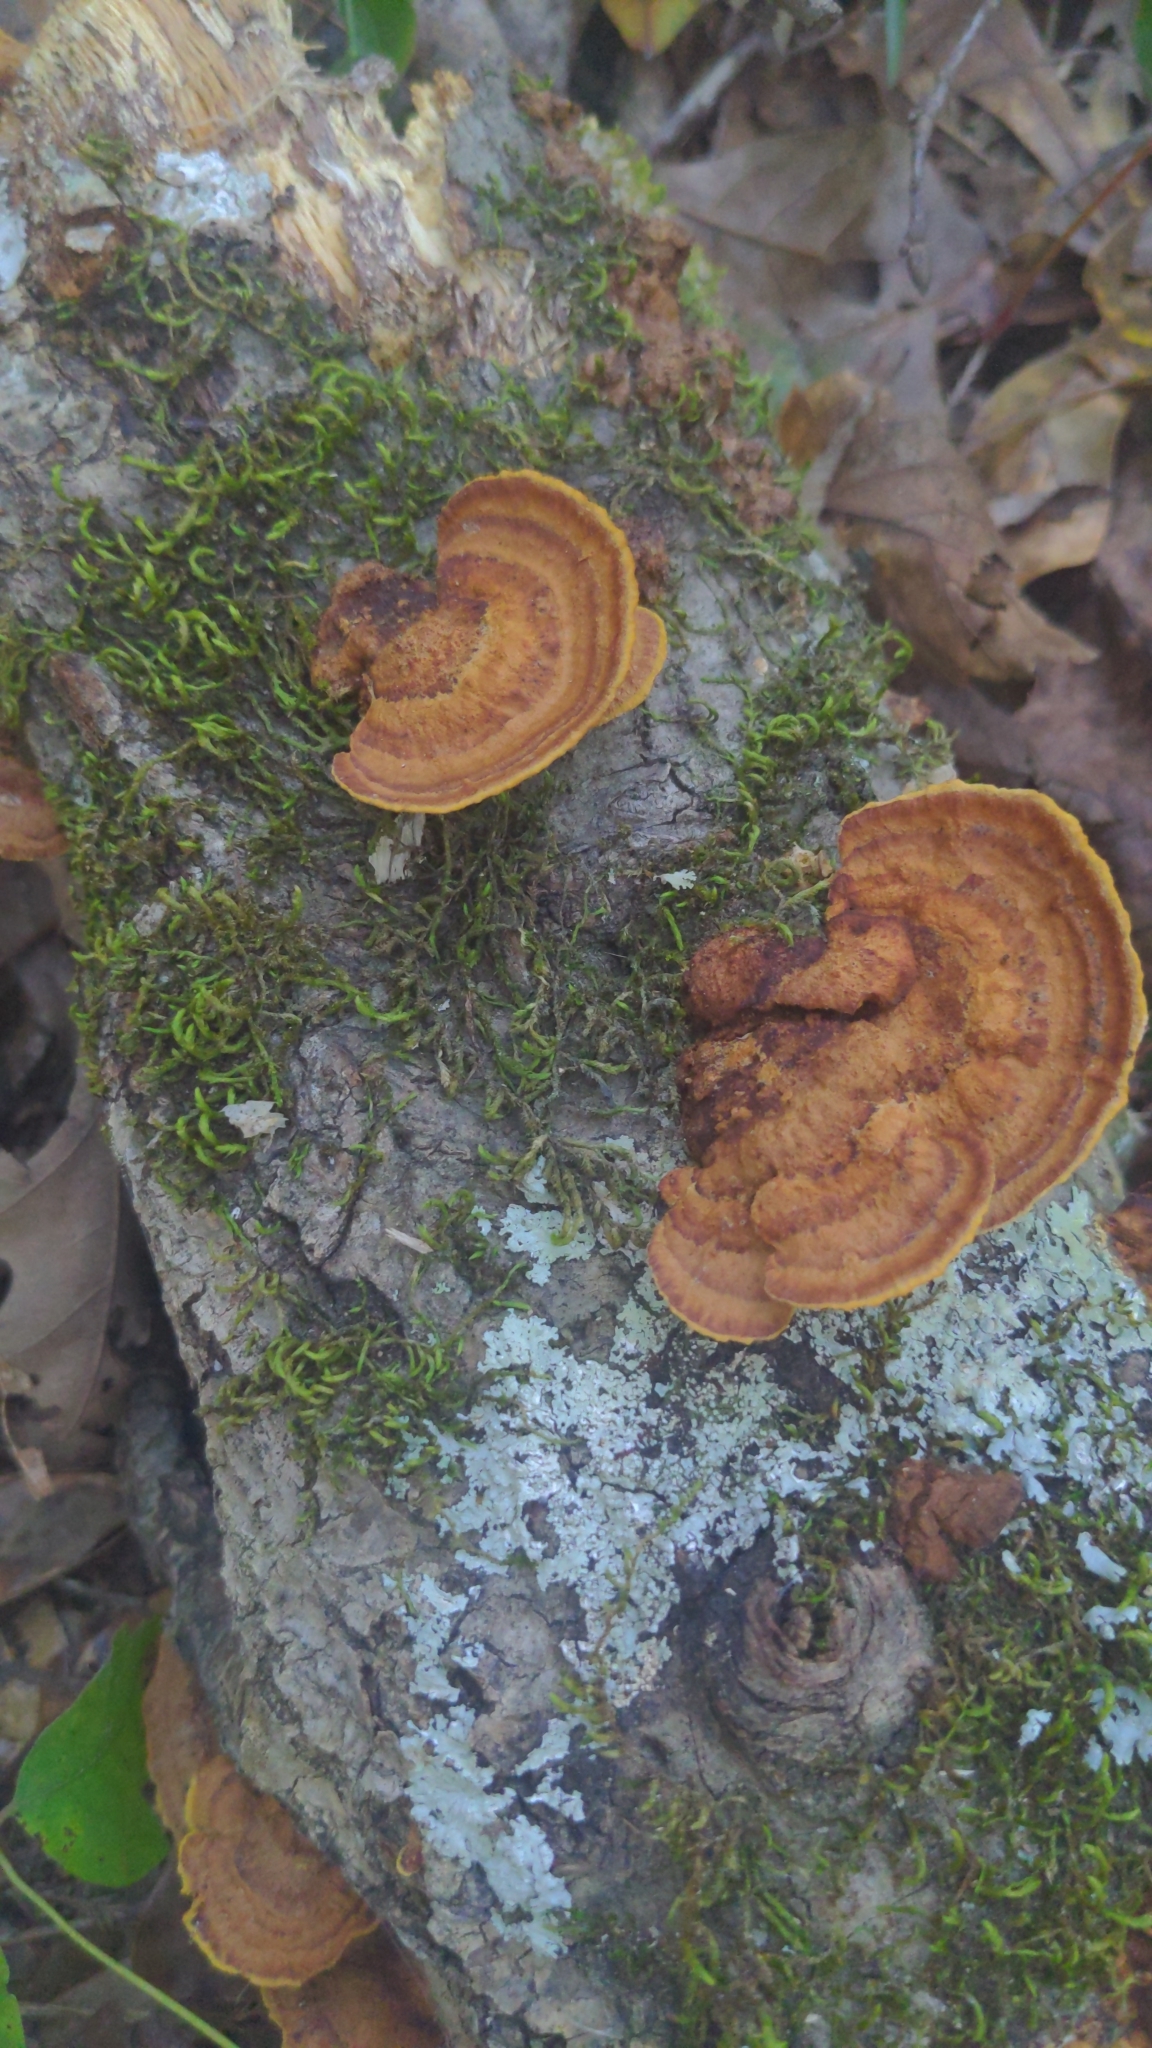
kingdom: Fungi
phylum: Basidiomycota
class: Agaricomycetes
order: Hymenochaetales
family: Hymenochaetaceae
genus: Phellinus
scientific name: Phellinus gilvus
